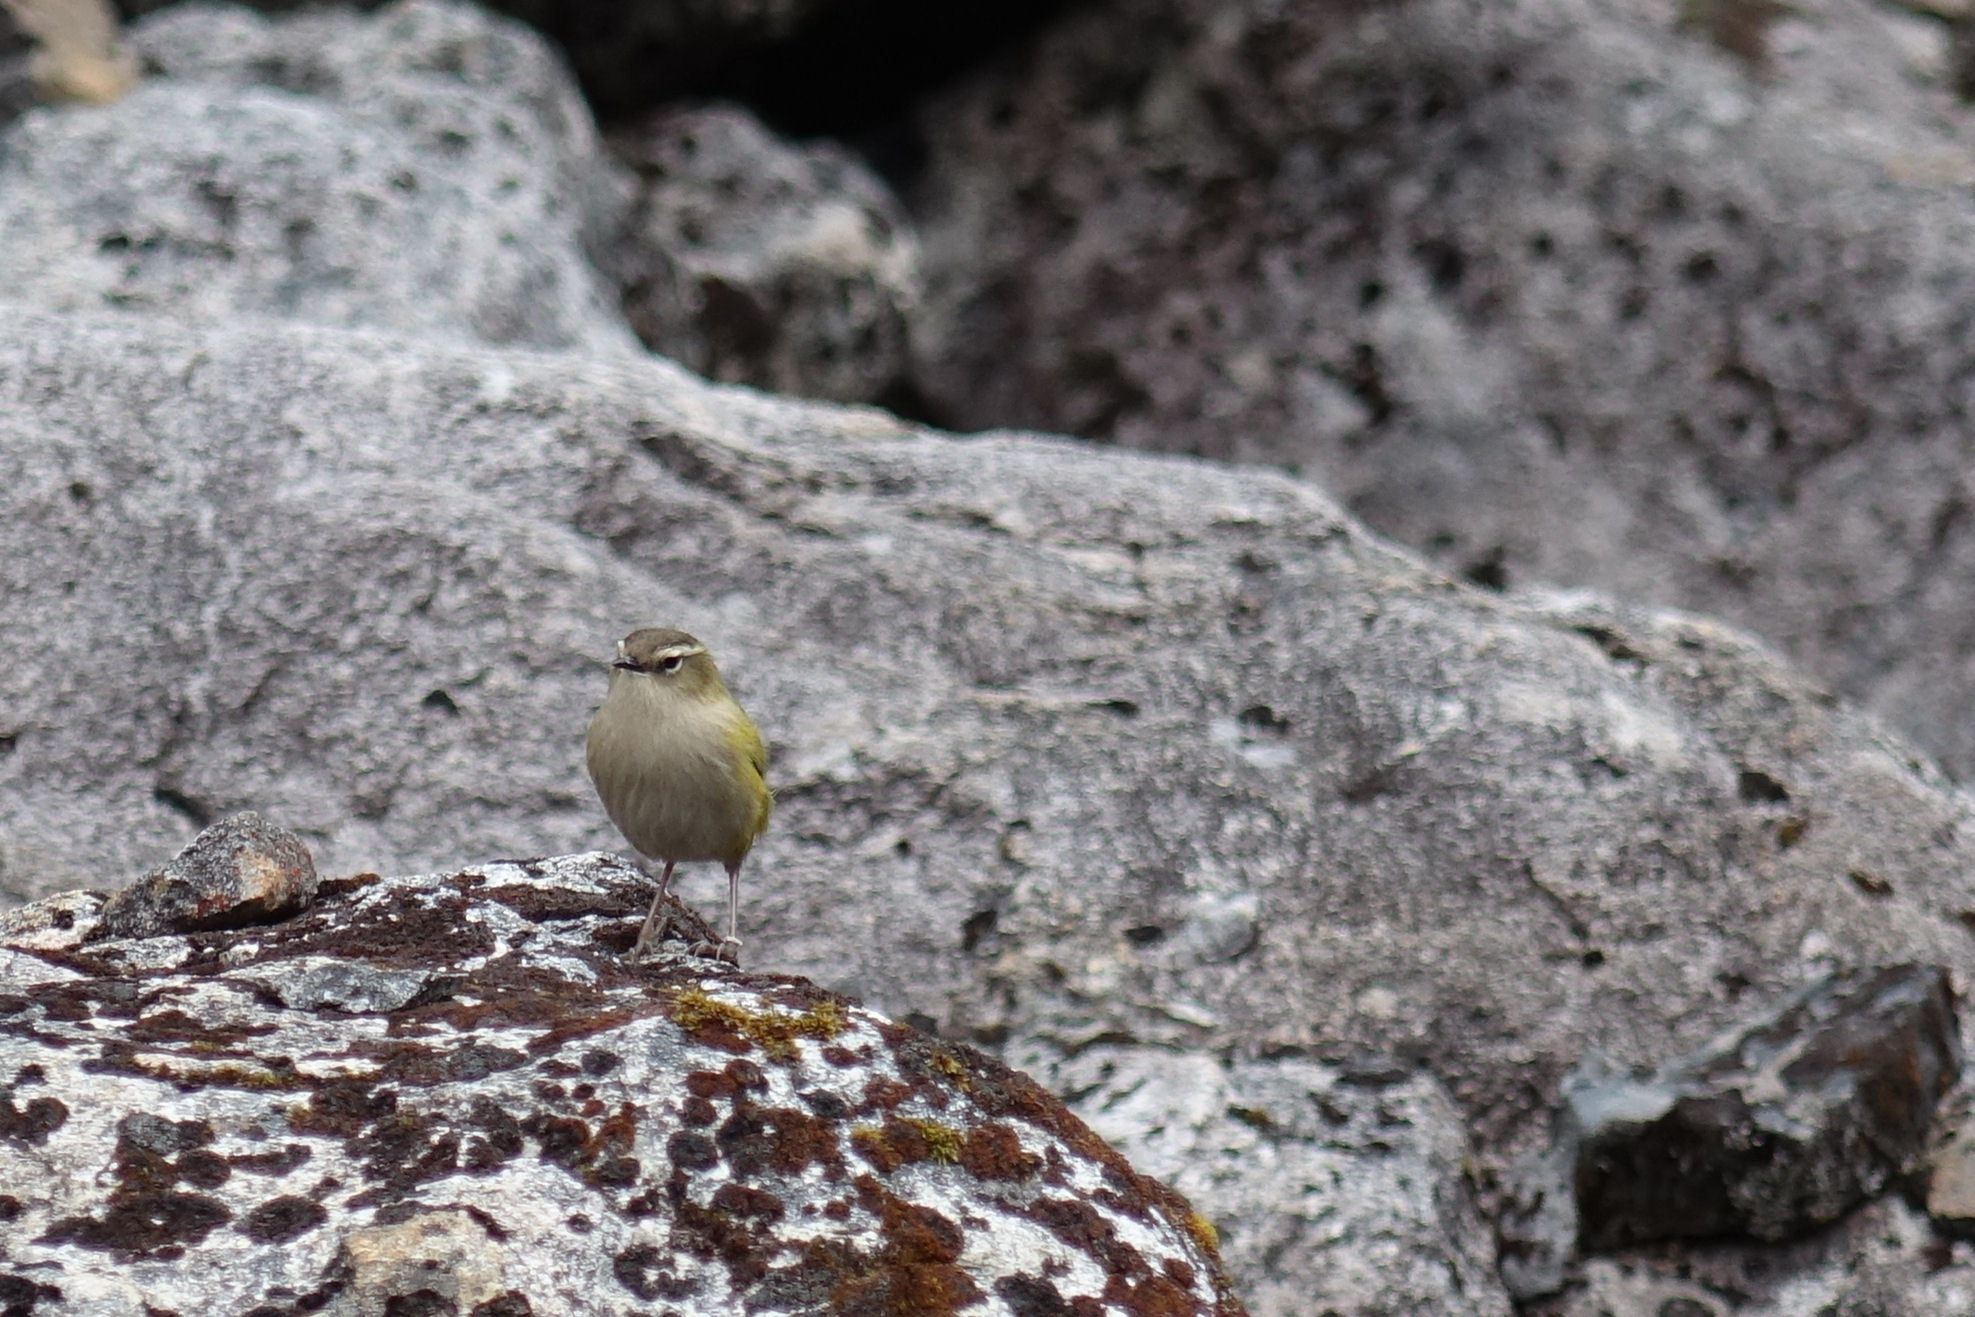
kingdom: Animalia
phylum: Chordata
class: Aves
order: Passeriformes
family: Acanthisittidae
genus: Xenicus
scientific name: Xenicus gilviventris
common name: New zealand rockwren
